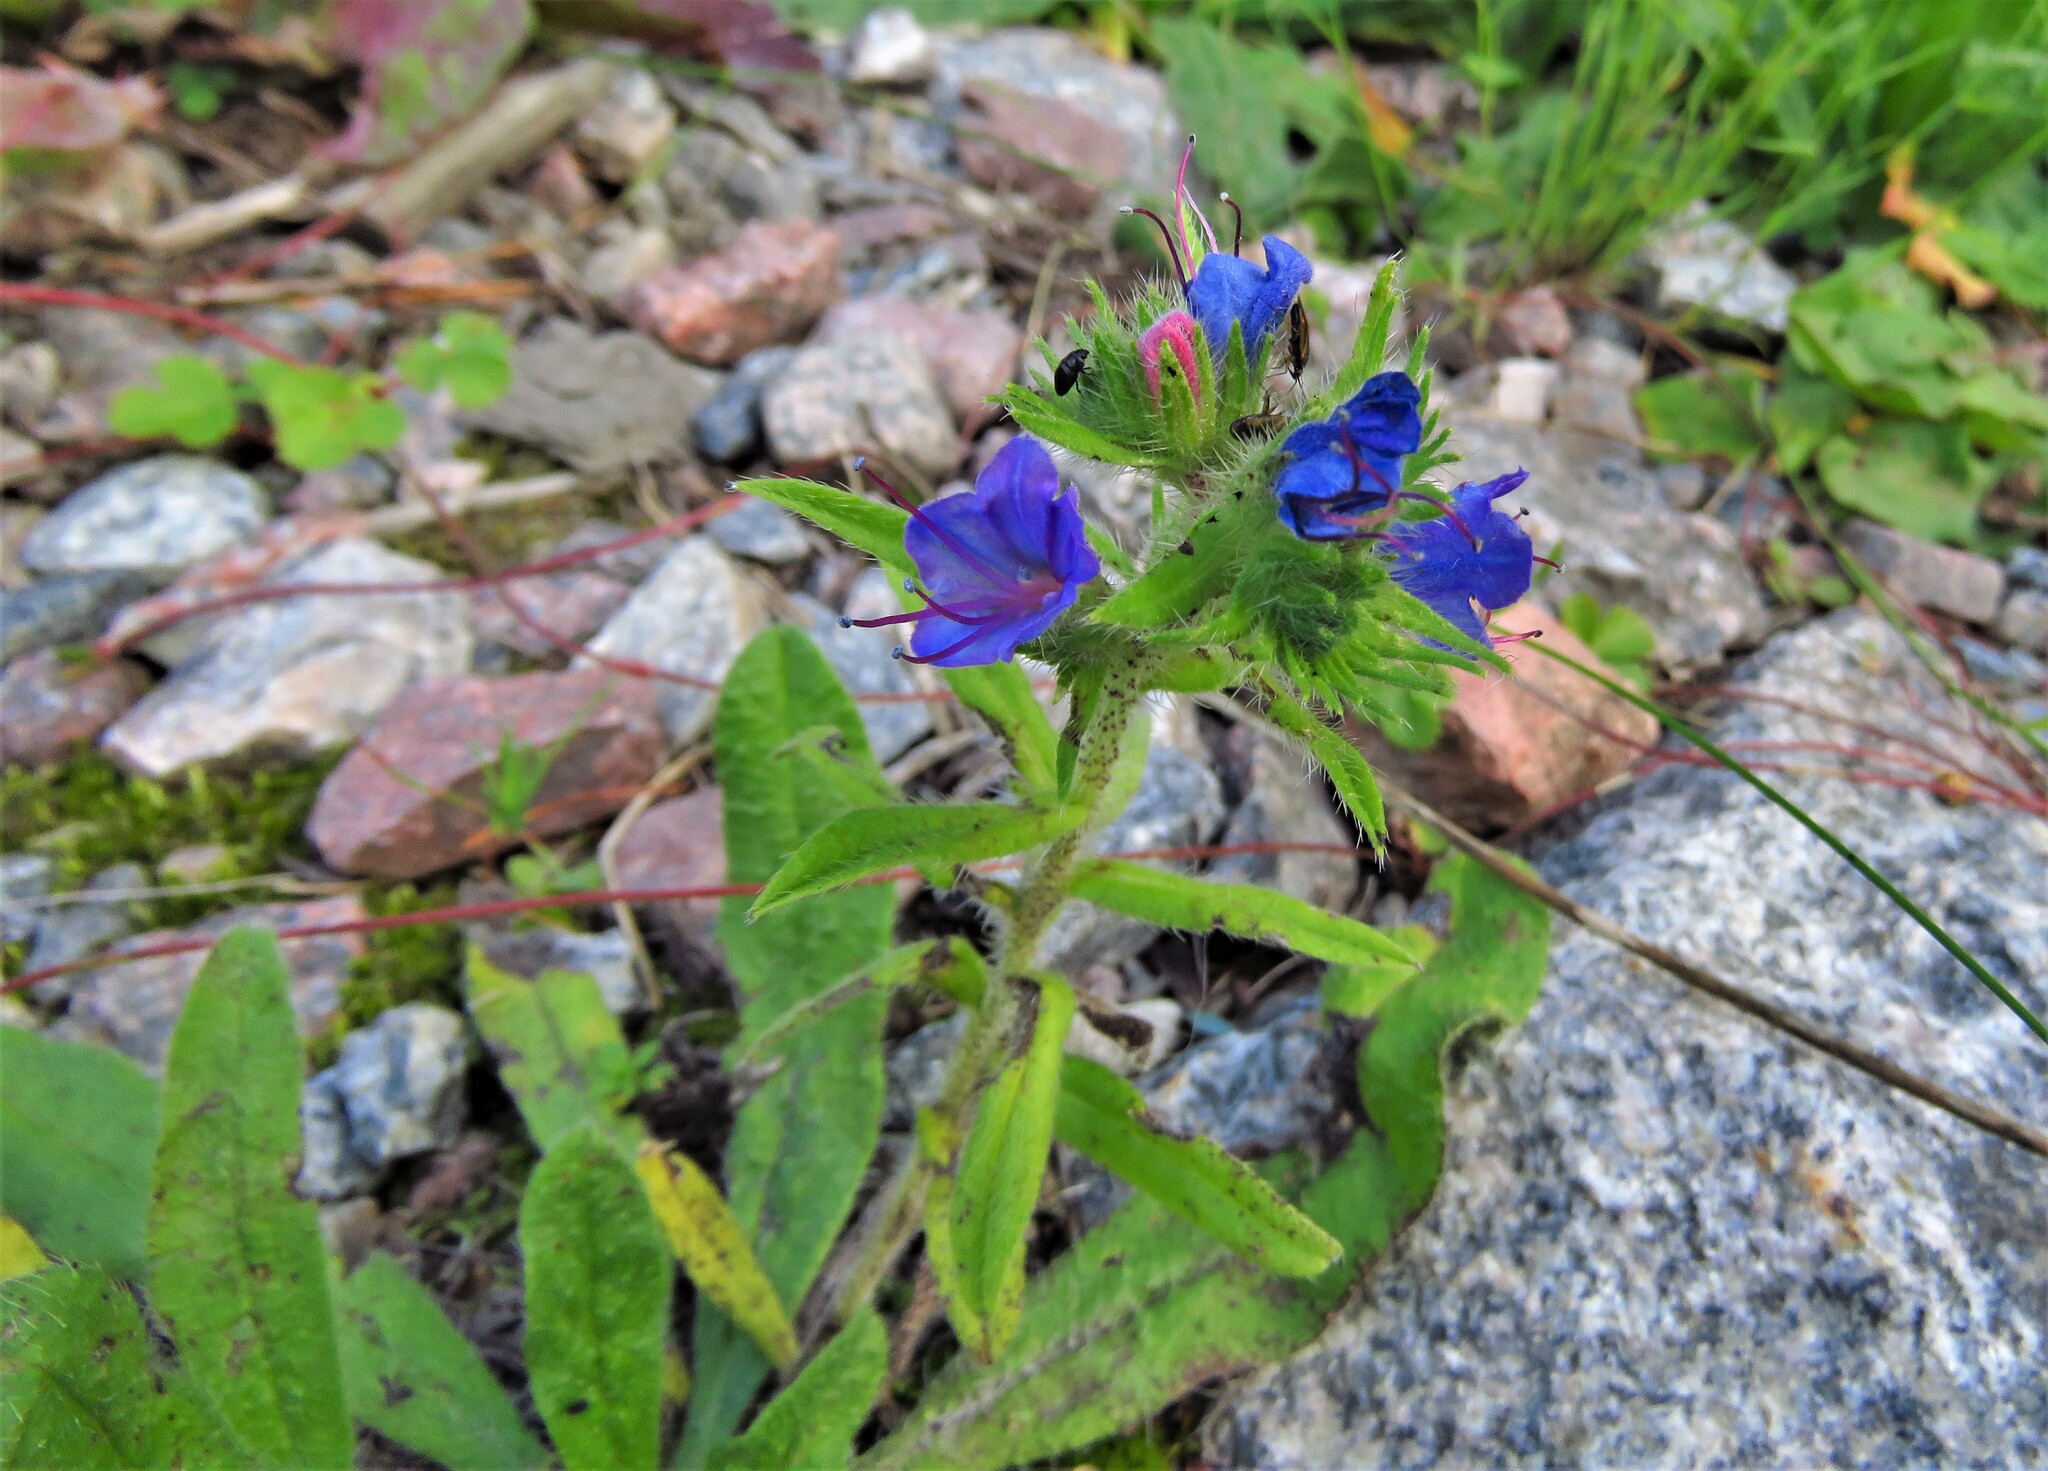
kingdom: Plantae
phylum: Tracheophyta
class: Magnoliopsida
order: Boraginales
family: Boraginaceae
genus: Echium
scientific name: Echium vulgare
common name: Common viper's bugloss
